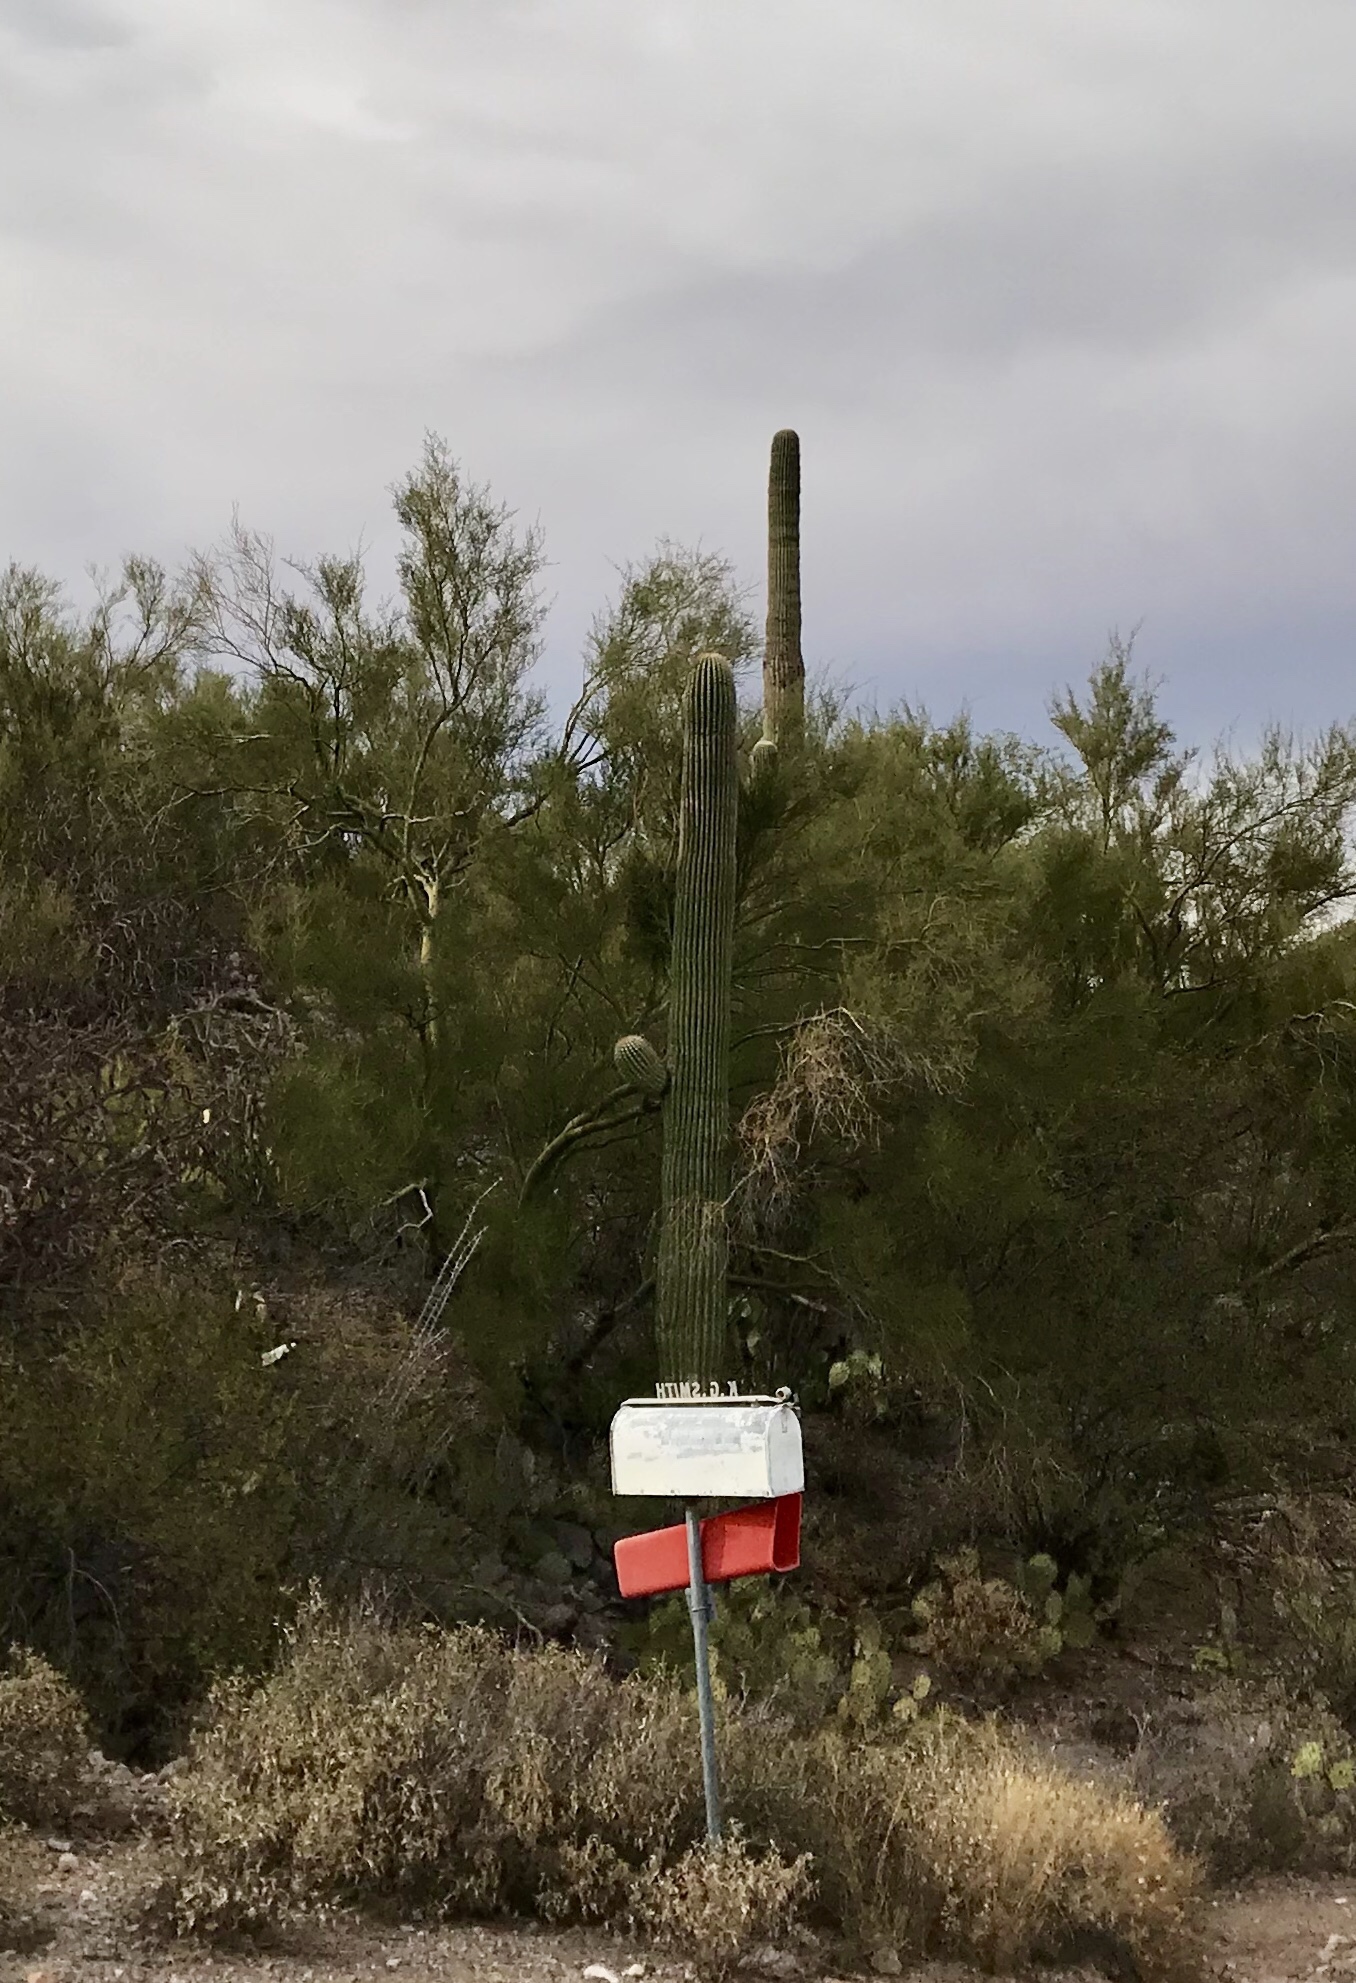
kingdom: Plantae
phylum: Tracheophyta
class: Magnoliopsida
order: Caryophyllales
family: Cactaceae
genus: Carnegiea
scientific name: Carnegiea gigantea
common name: Saguaro
